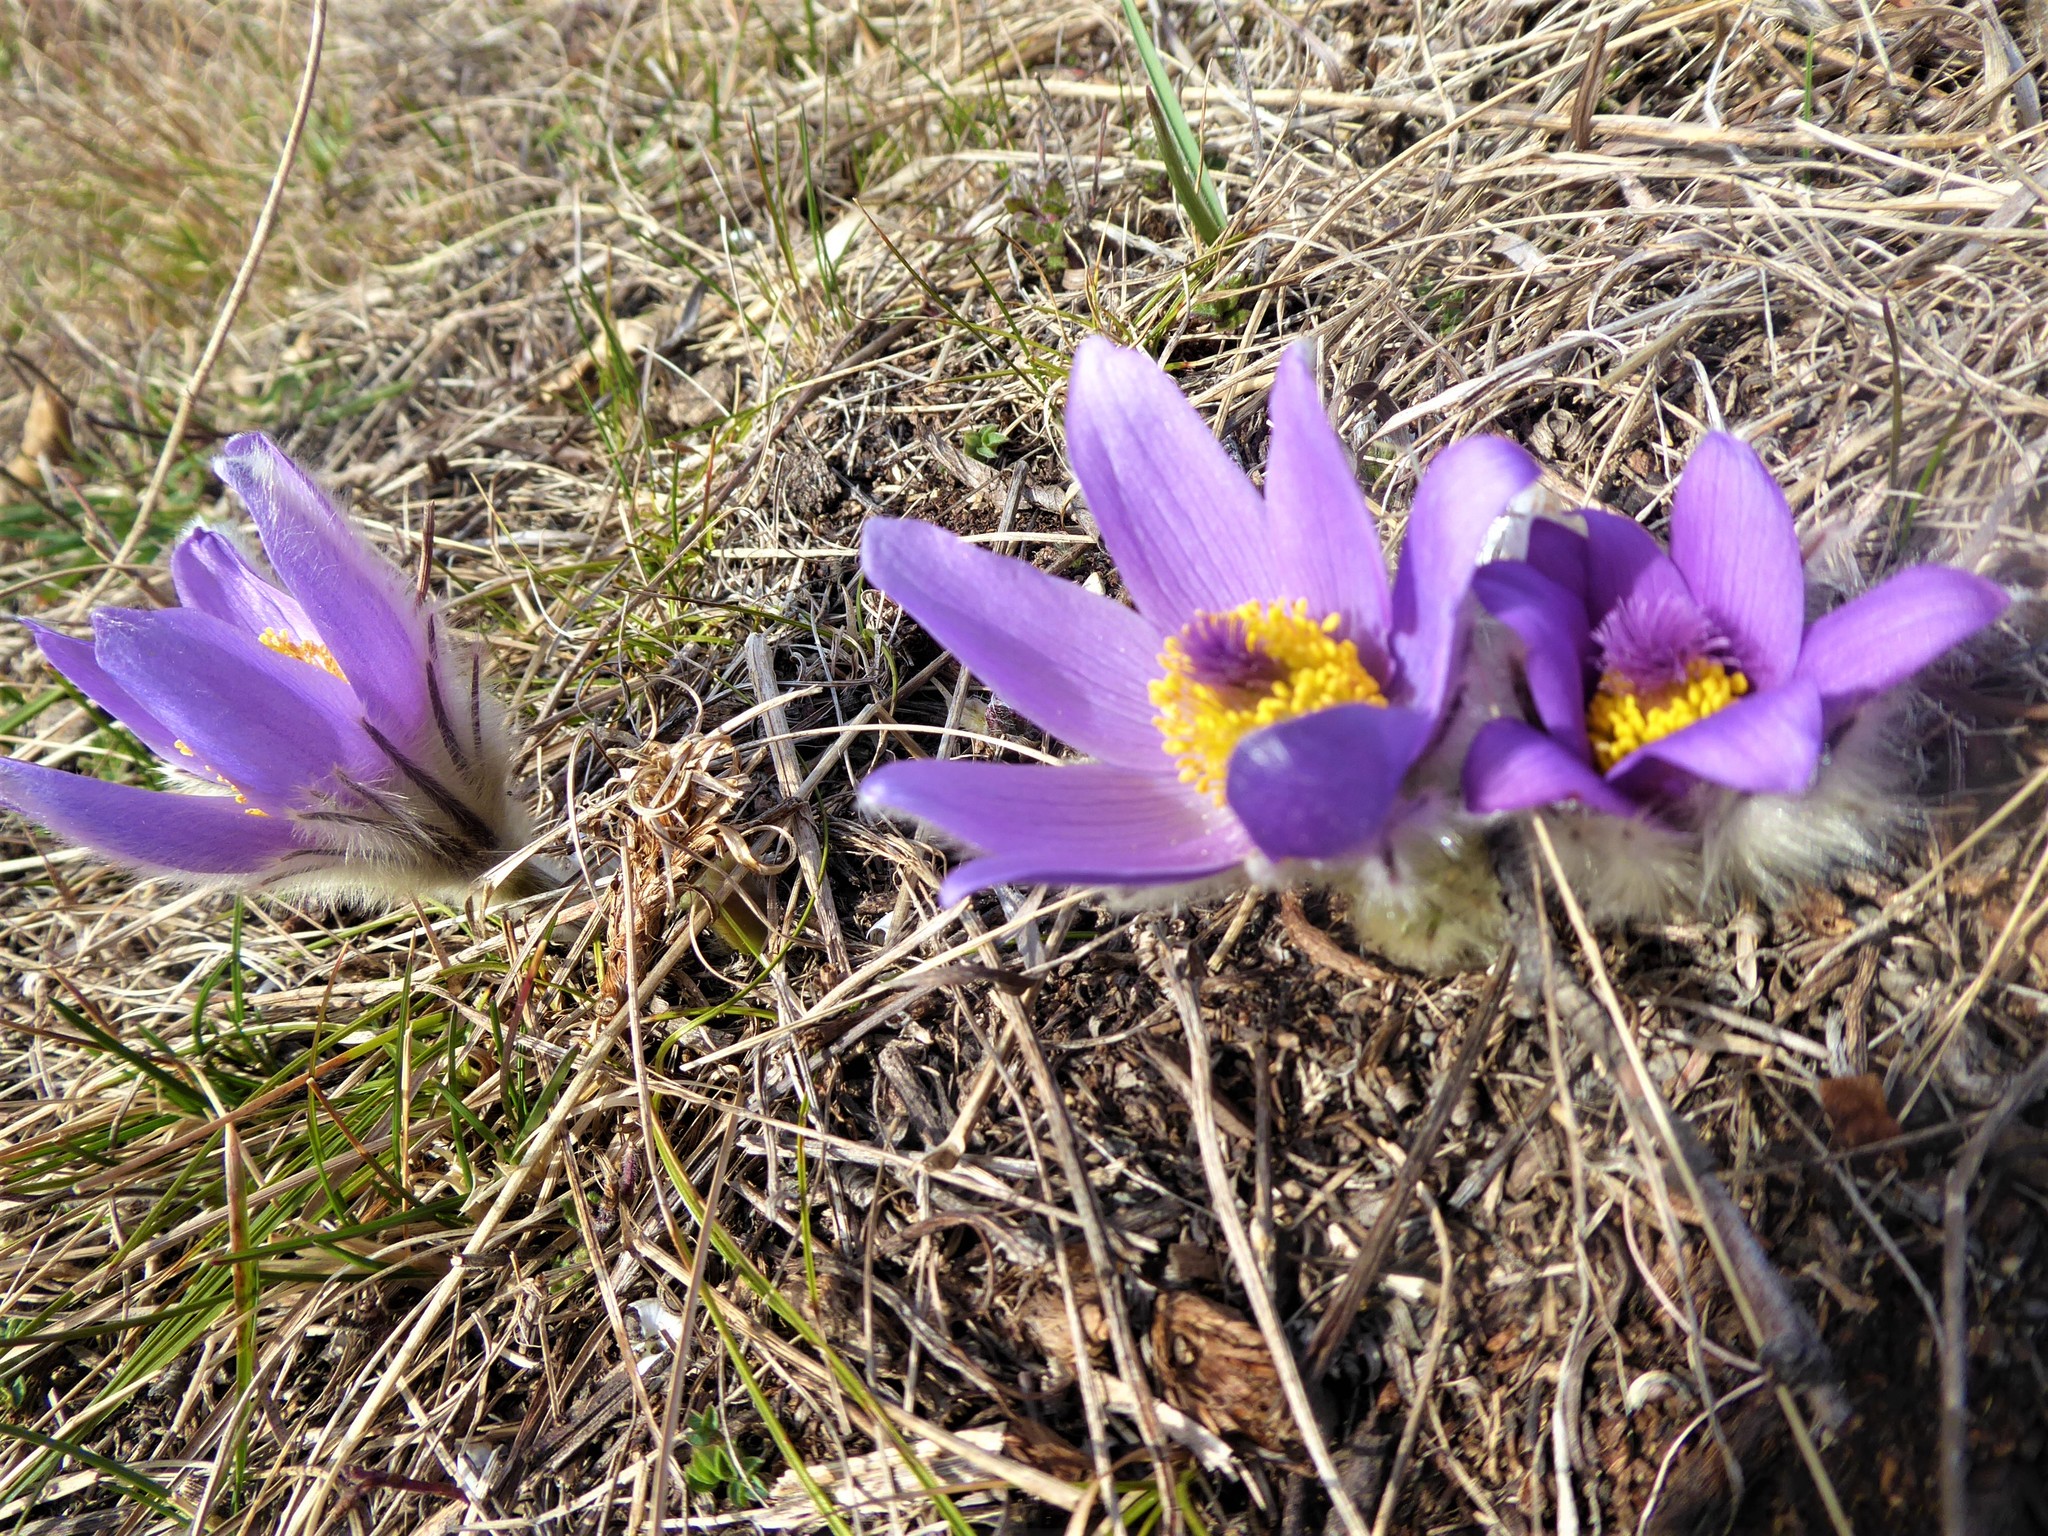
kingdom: Plantae
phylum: Tracheophyta
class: Magnoliopsida
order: Ranunculales
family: Ranunculaceae
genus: Pulsatilla
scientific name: Pulsatilla grandis
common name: Greater pasque flower
